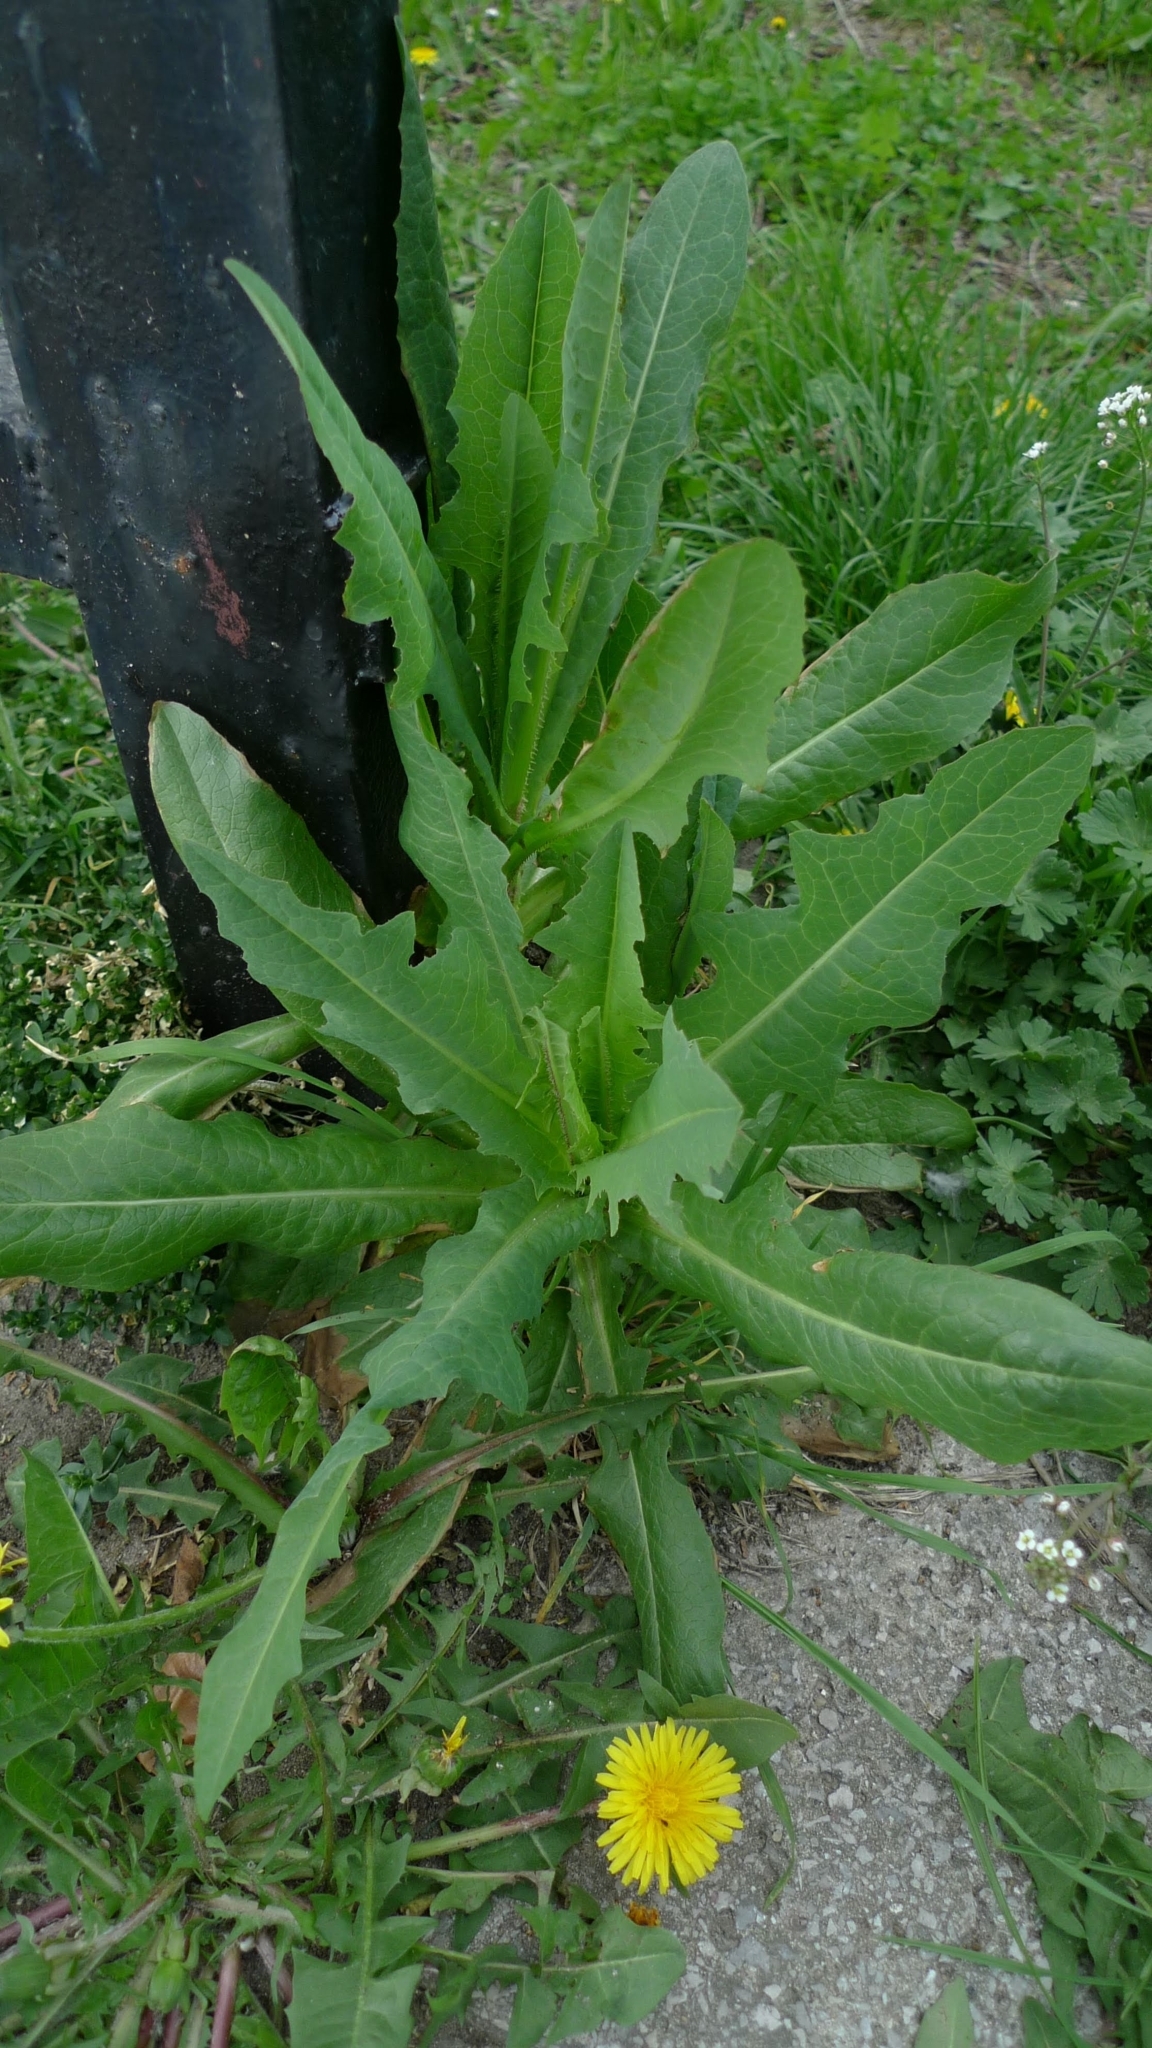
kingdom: Plantae
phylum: Tracheophyta
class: Magnoliopsida
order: Asterales
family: Asteraceae
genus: Cichorium
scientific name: Cichorium intybus
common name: Chicory
